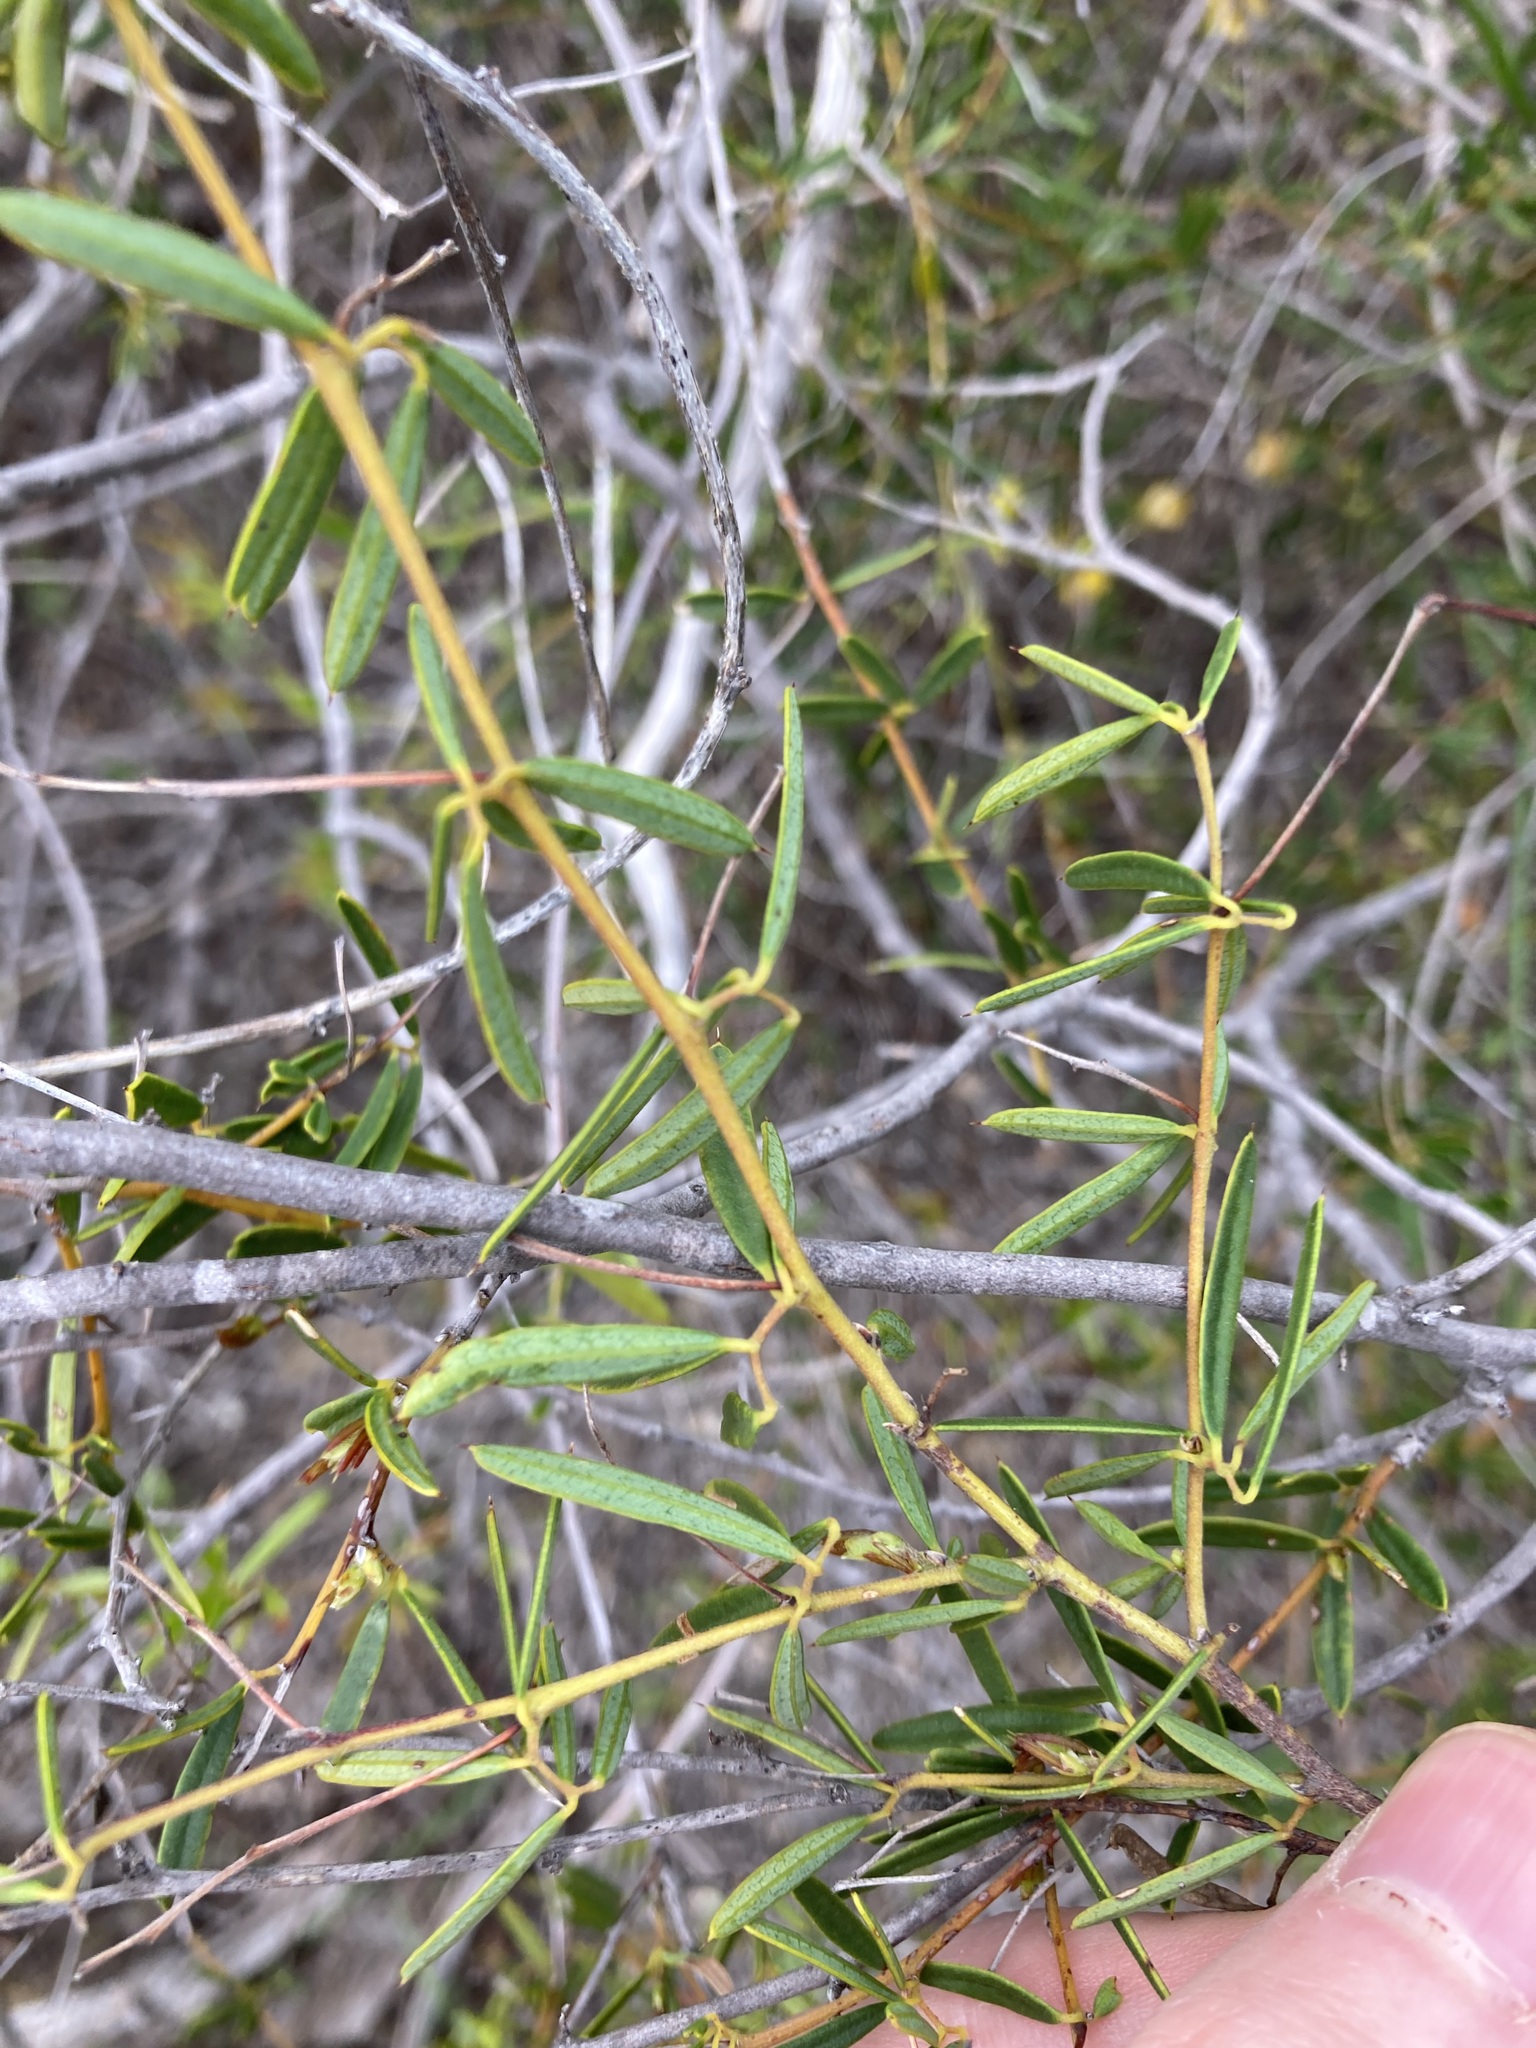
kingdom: Plantae
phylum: Tracheophyta
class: Magnoliopsida
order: Fabales
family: Fabaceae
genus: Labichea
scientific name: Labichea cassioides
